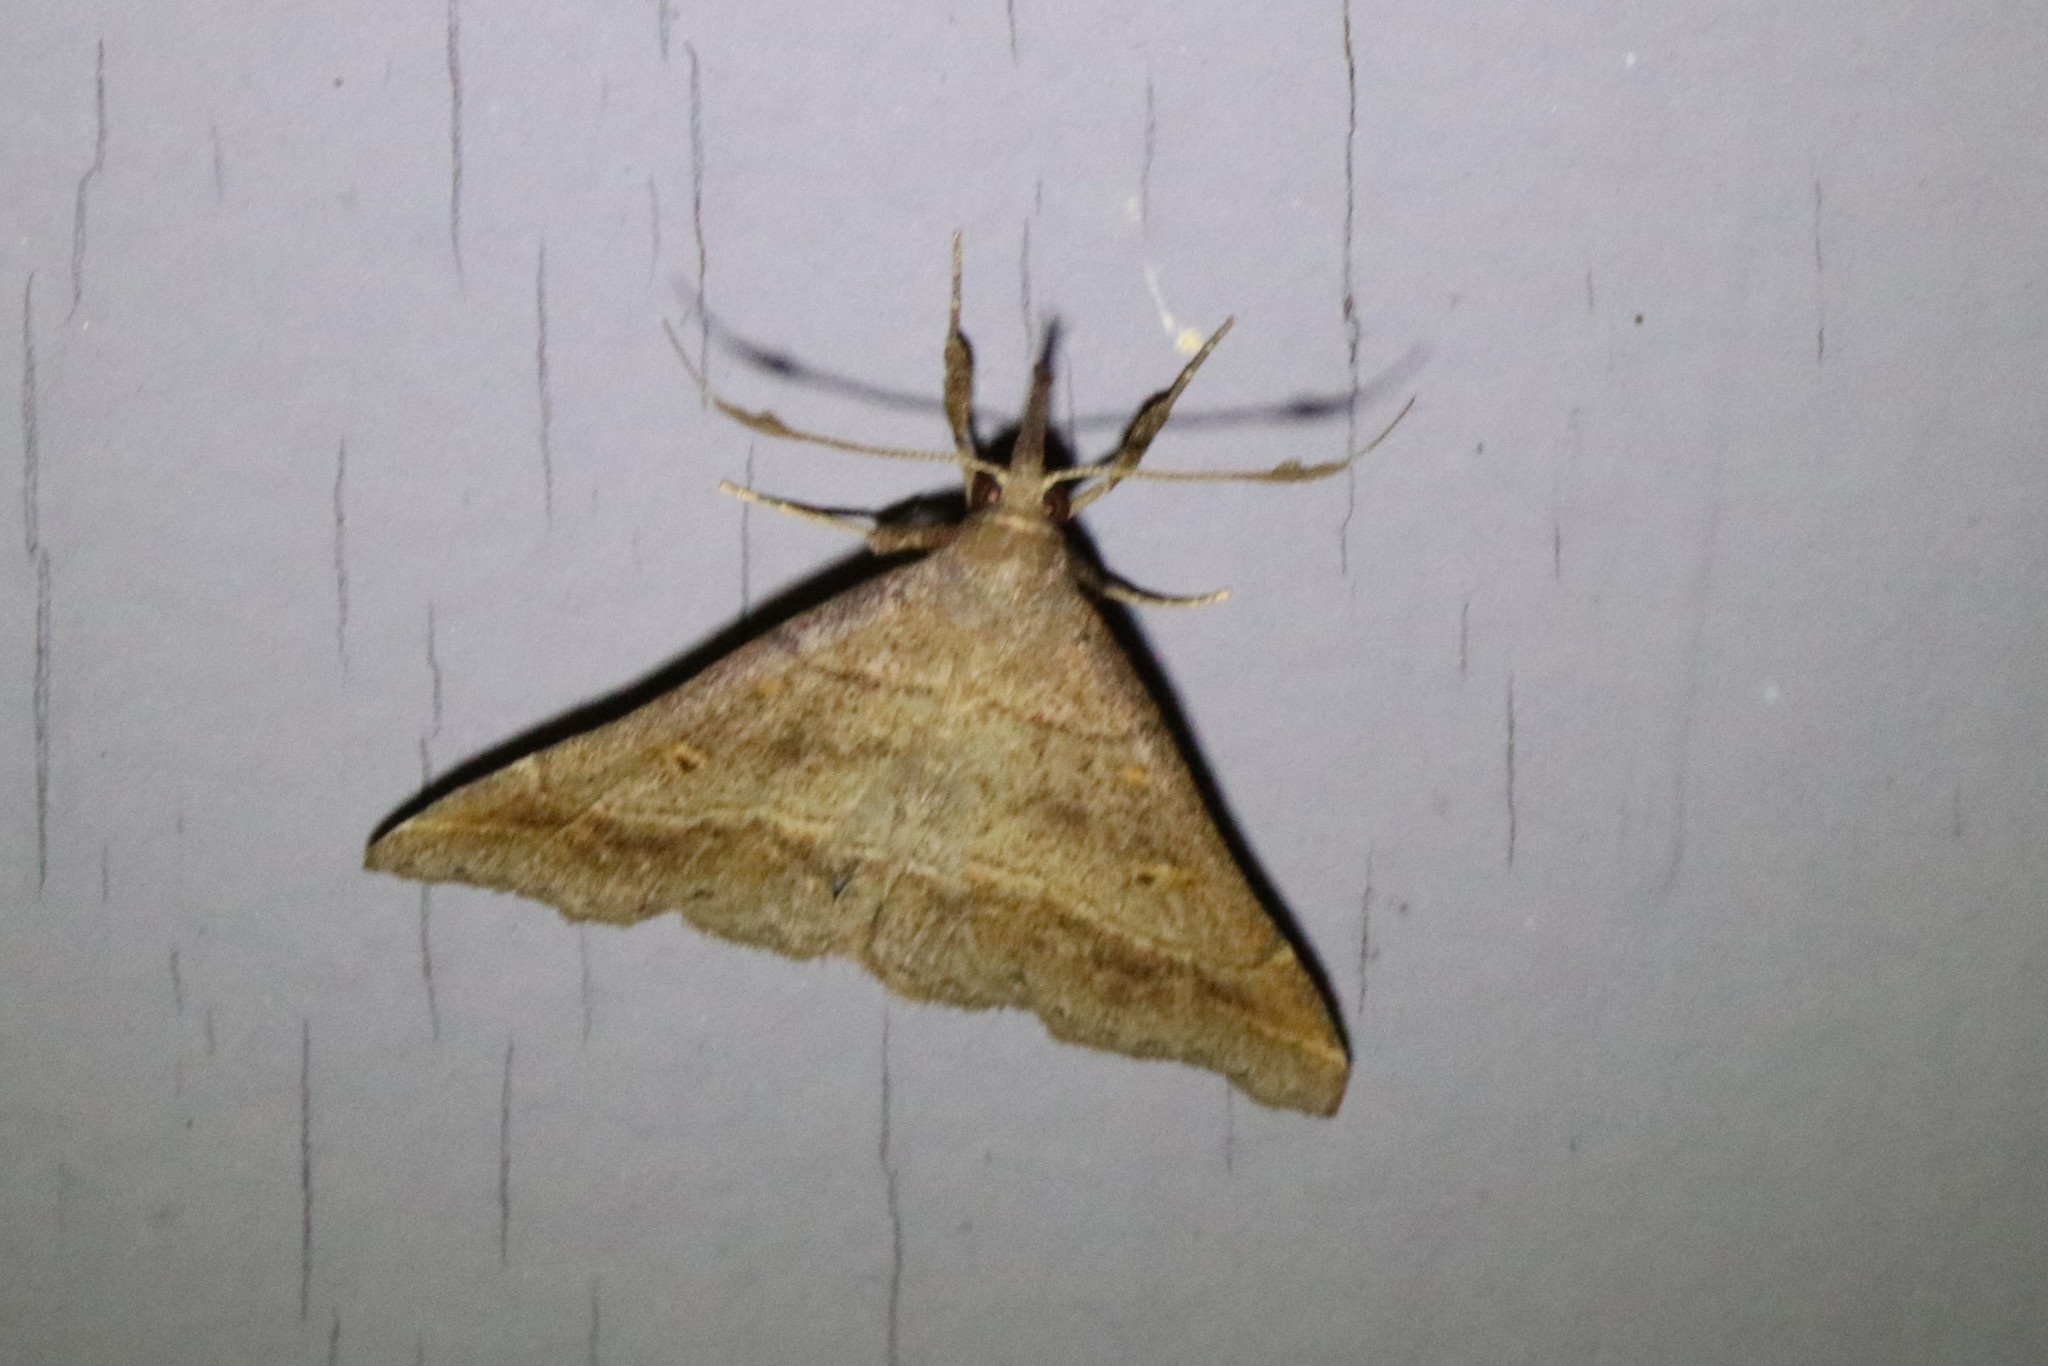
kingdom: Animalia
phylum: Arthropoda
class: Insecta
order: Lepidoptera
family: Erebidae
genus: Renia
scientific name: Renia flavipunctalis
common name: Yellow-spotted renia moth
